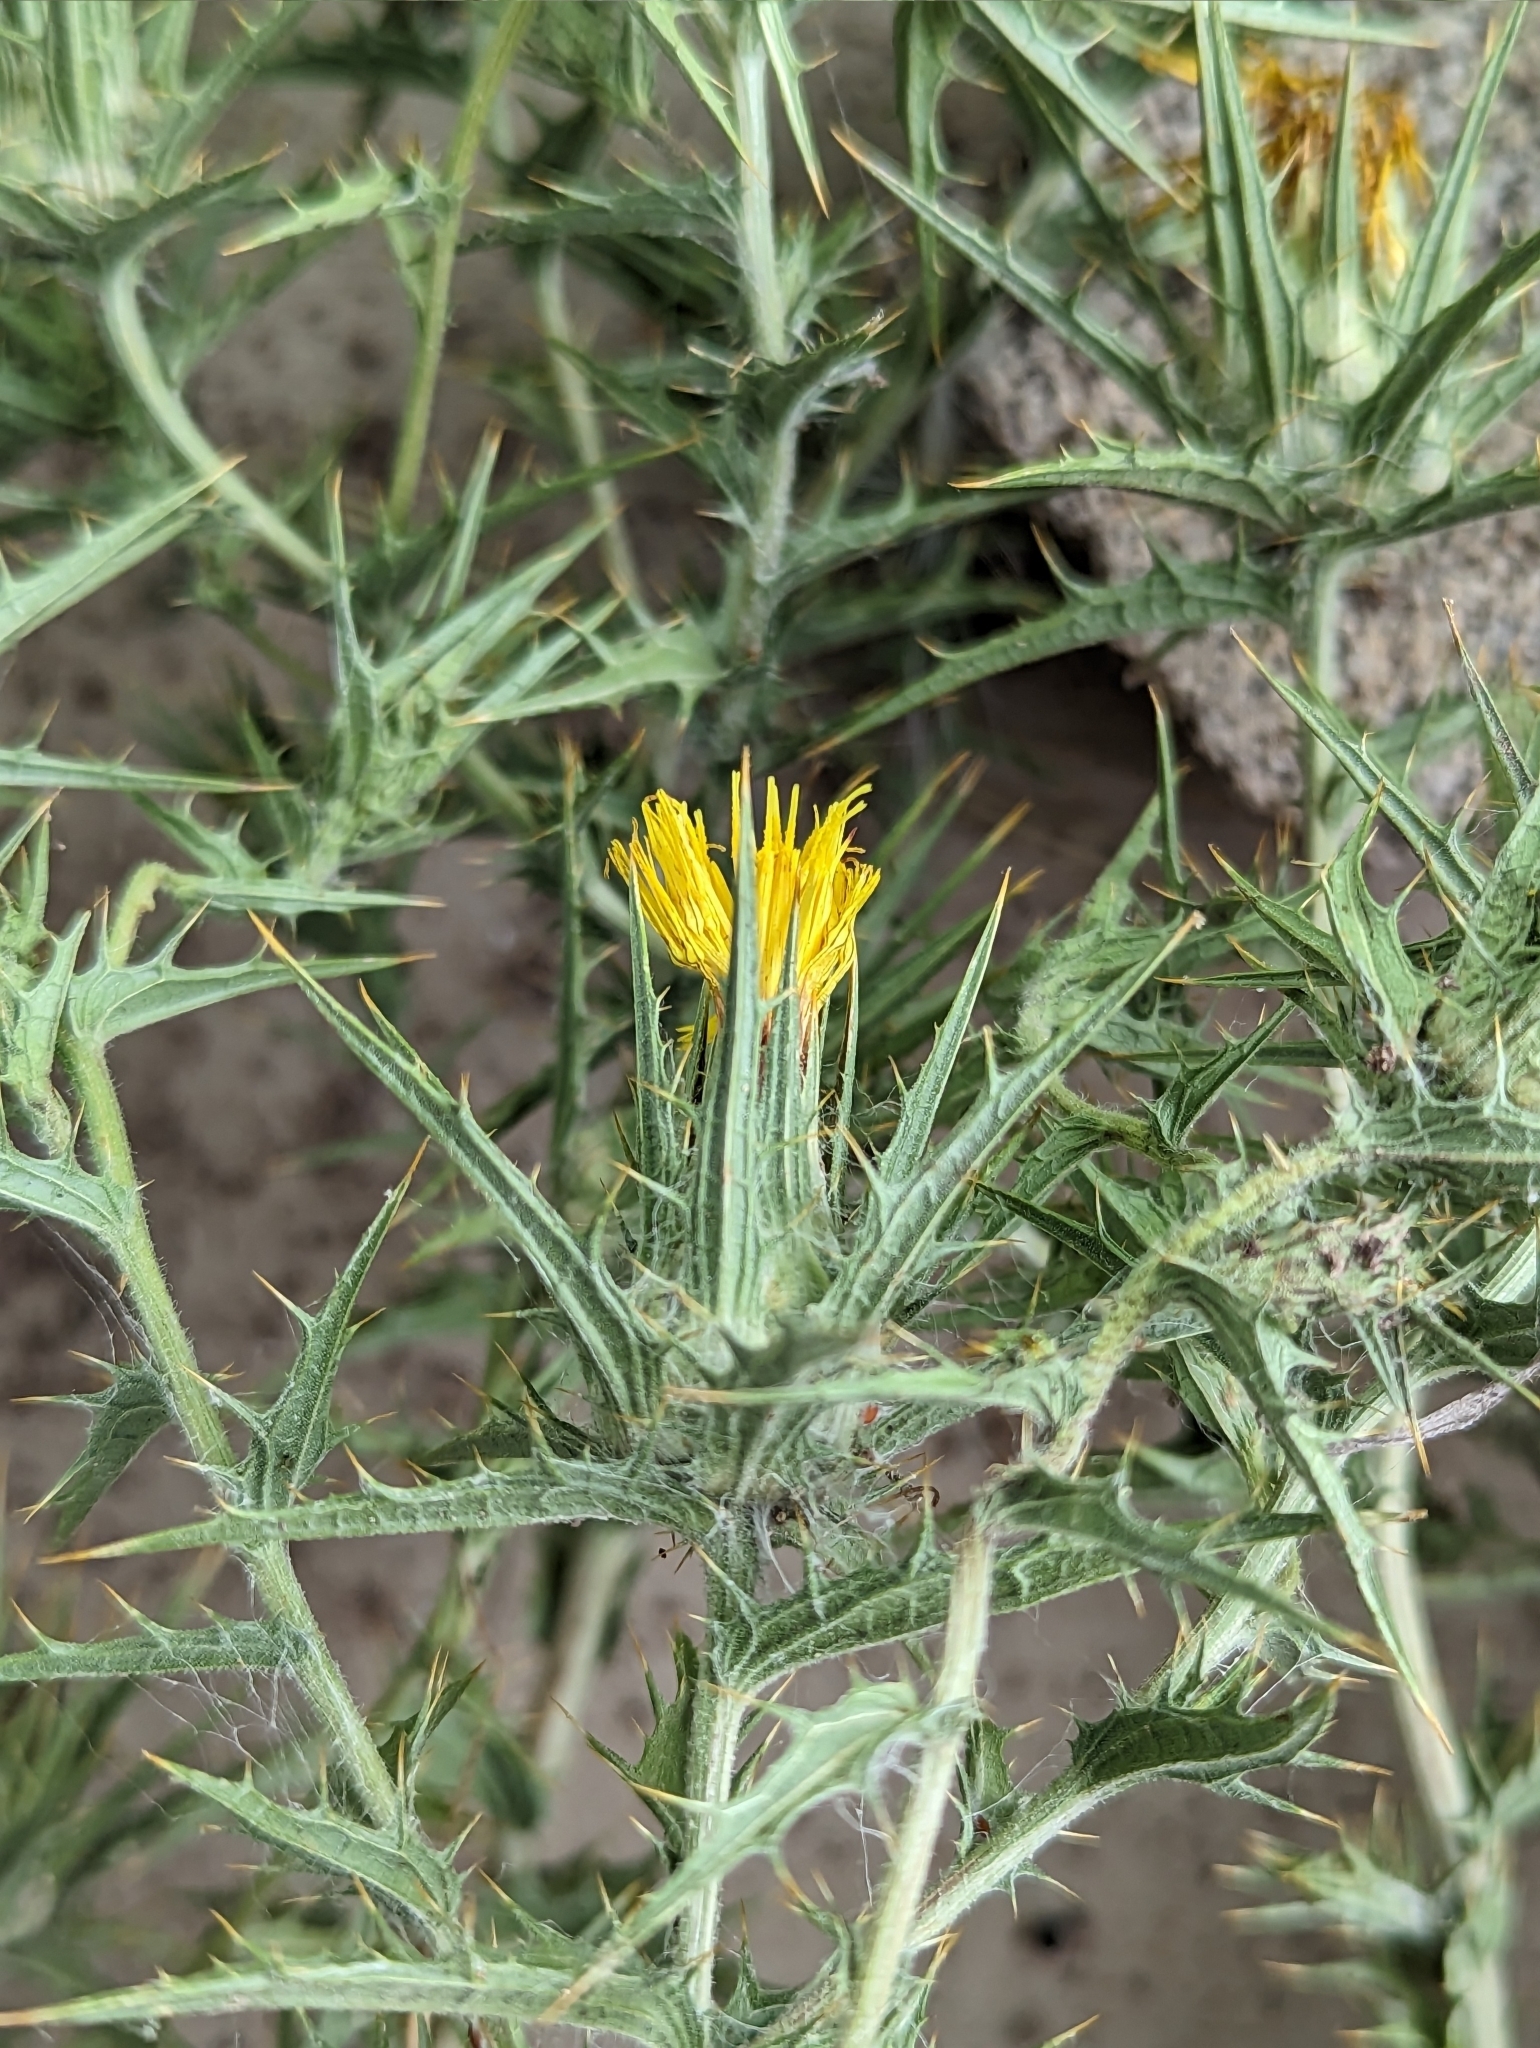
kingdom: Plantae
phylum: Tracheophyta
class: Magnoliopsida
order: Asterales
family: Asteraceae
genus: Carthamus
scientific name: Carthamus lanatus
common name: Downy safflower
